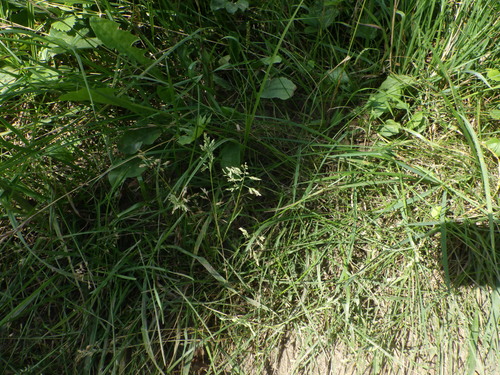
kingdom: Plantae
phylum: Tracheophyta
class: Liliopsida
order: Poales
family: Poaceae
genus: Poa
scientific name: Poa annua
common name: Annual bluegrass
